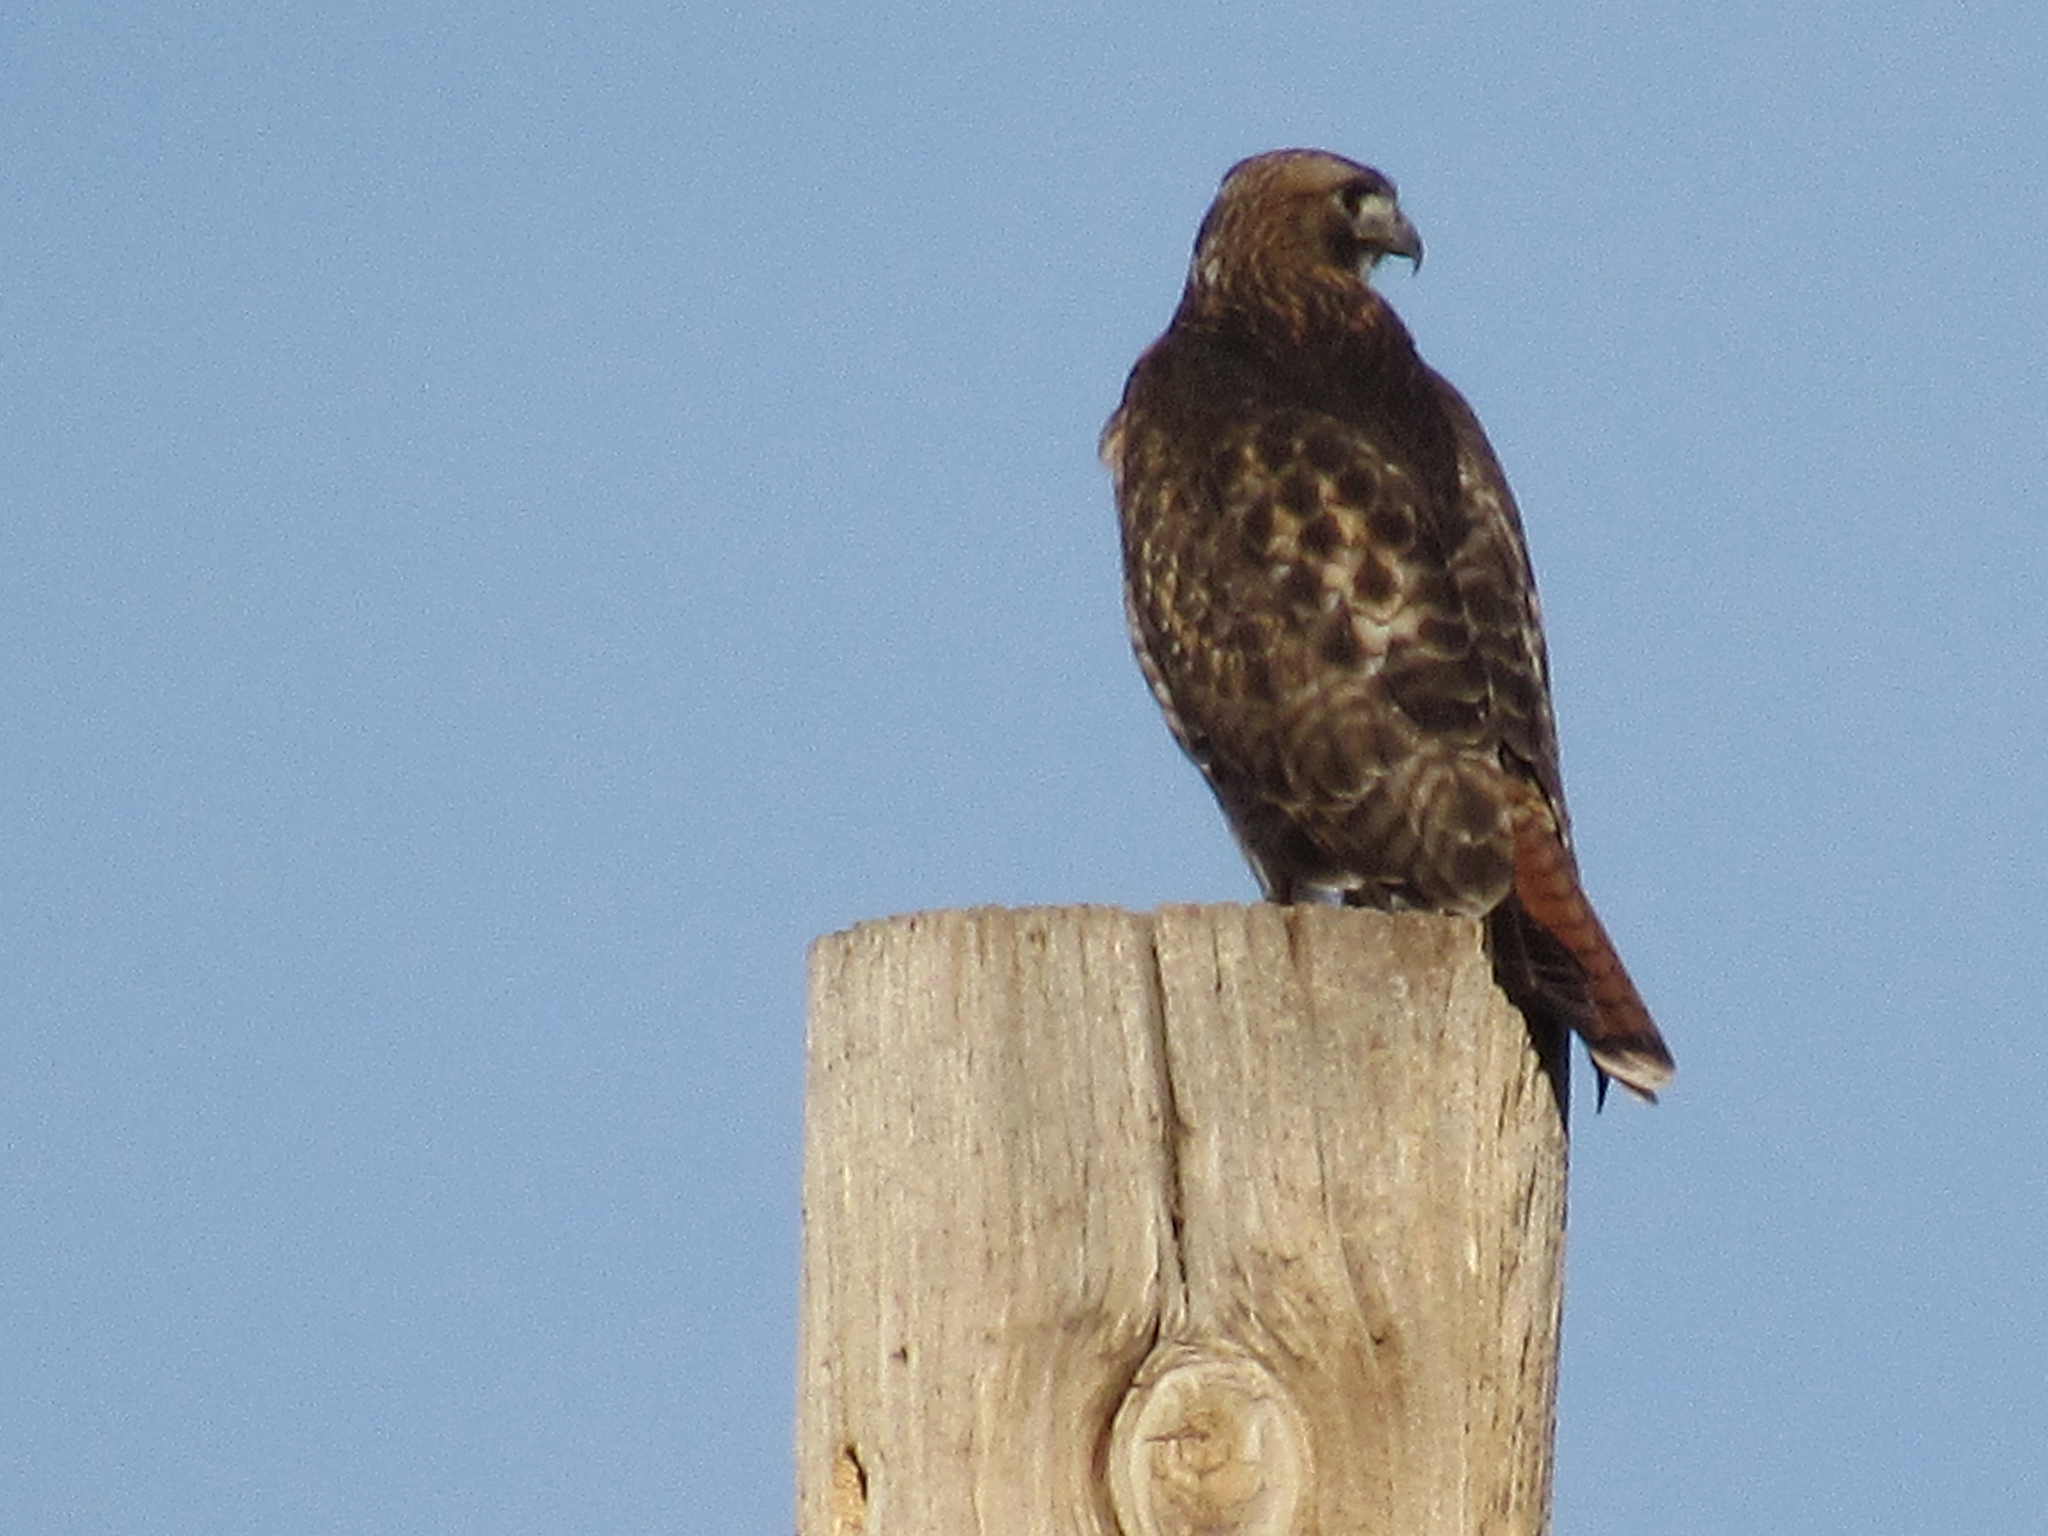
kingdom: Animalia
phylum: Chordata
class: Aves
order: Accipitriformes
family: Accipitridae
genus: Buteo
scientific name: Buteo jamaicensis
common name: Red-tailed hawk
